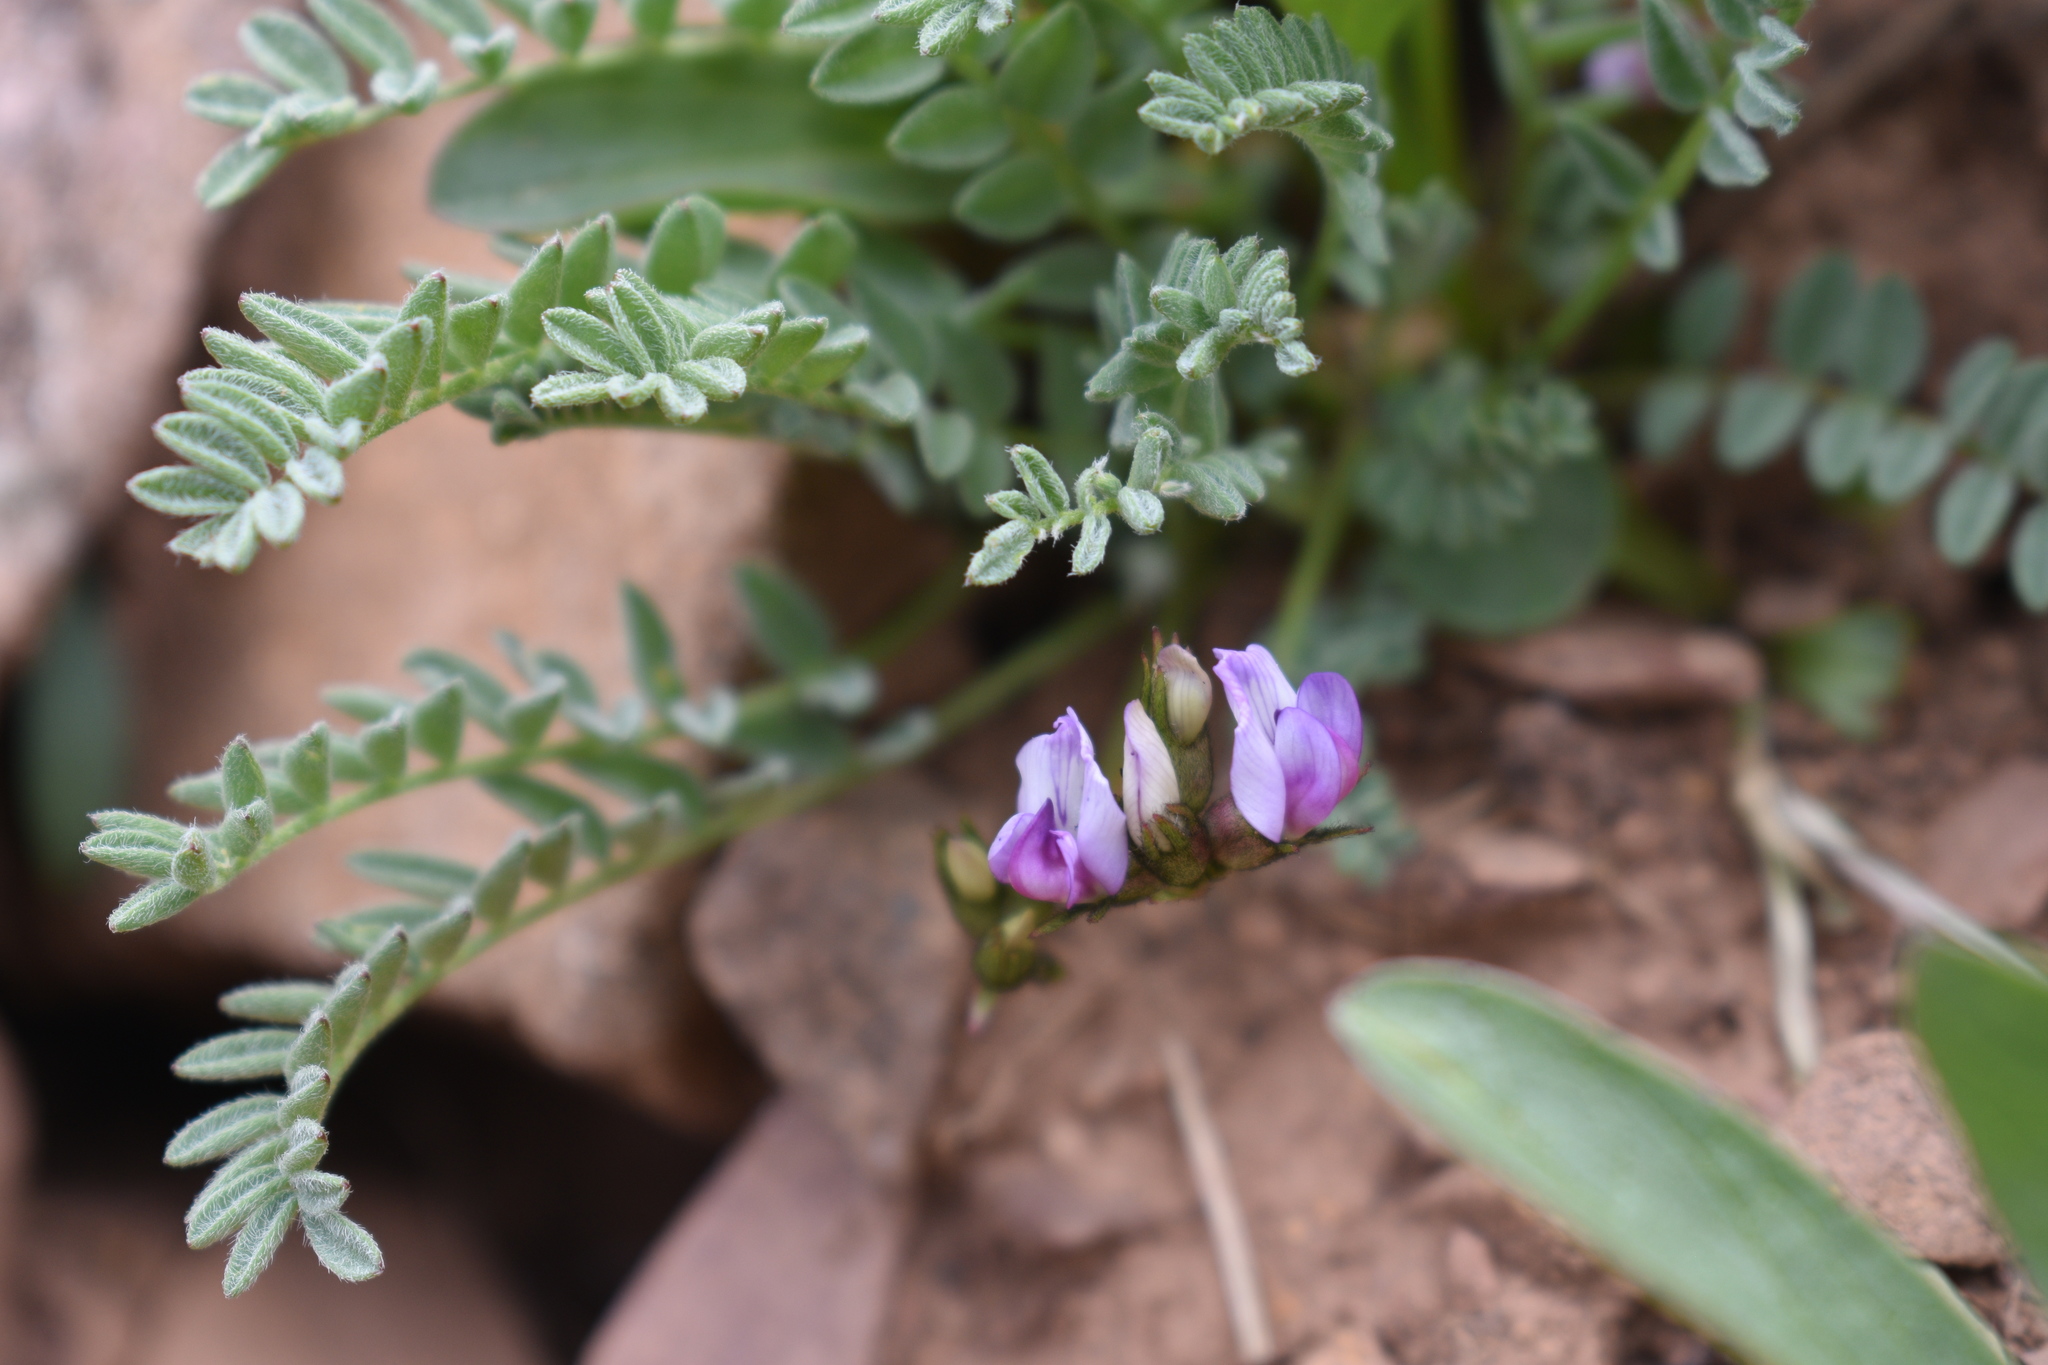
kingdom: Plantae
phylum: Tracheophyta
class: Magnoliopsida
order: Fabales
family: Fabaceae
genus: Astragalus
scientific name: Astragalus molybdenus
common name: Leadville
